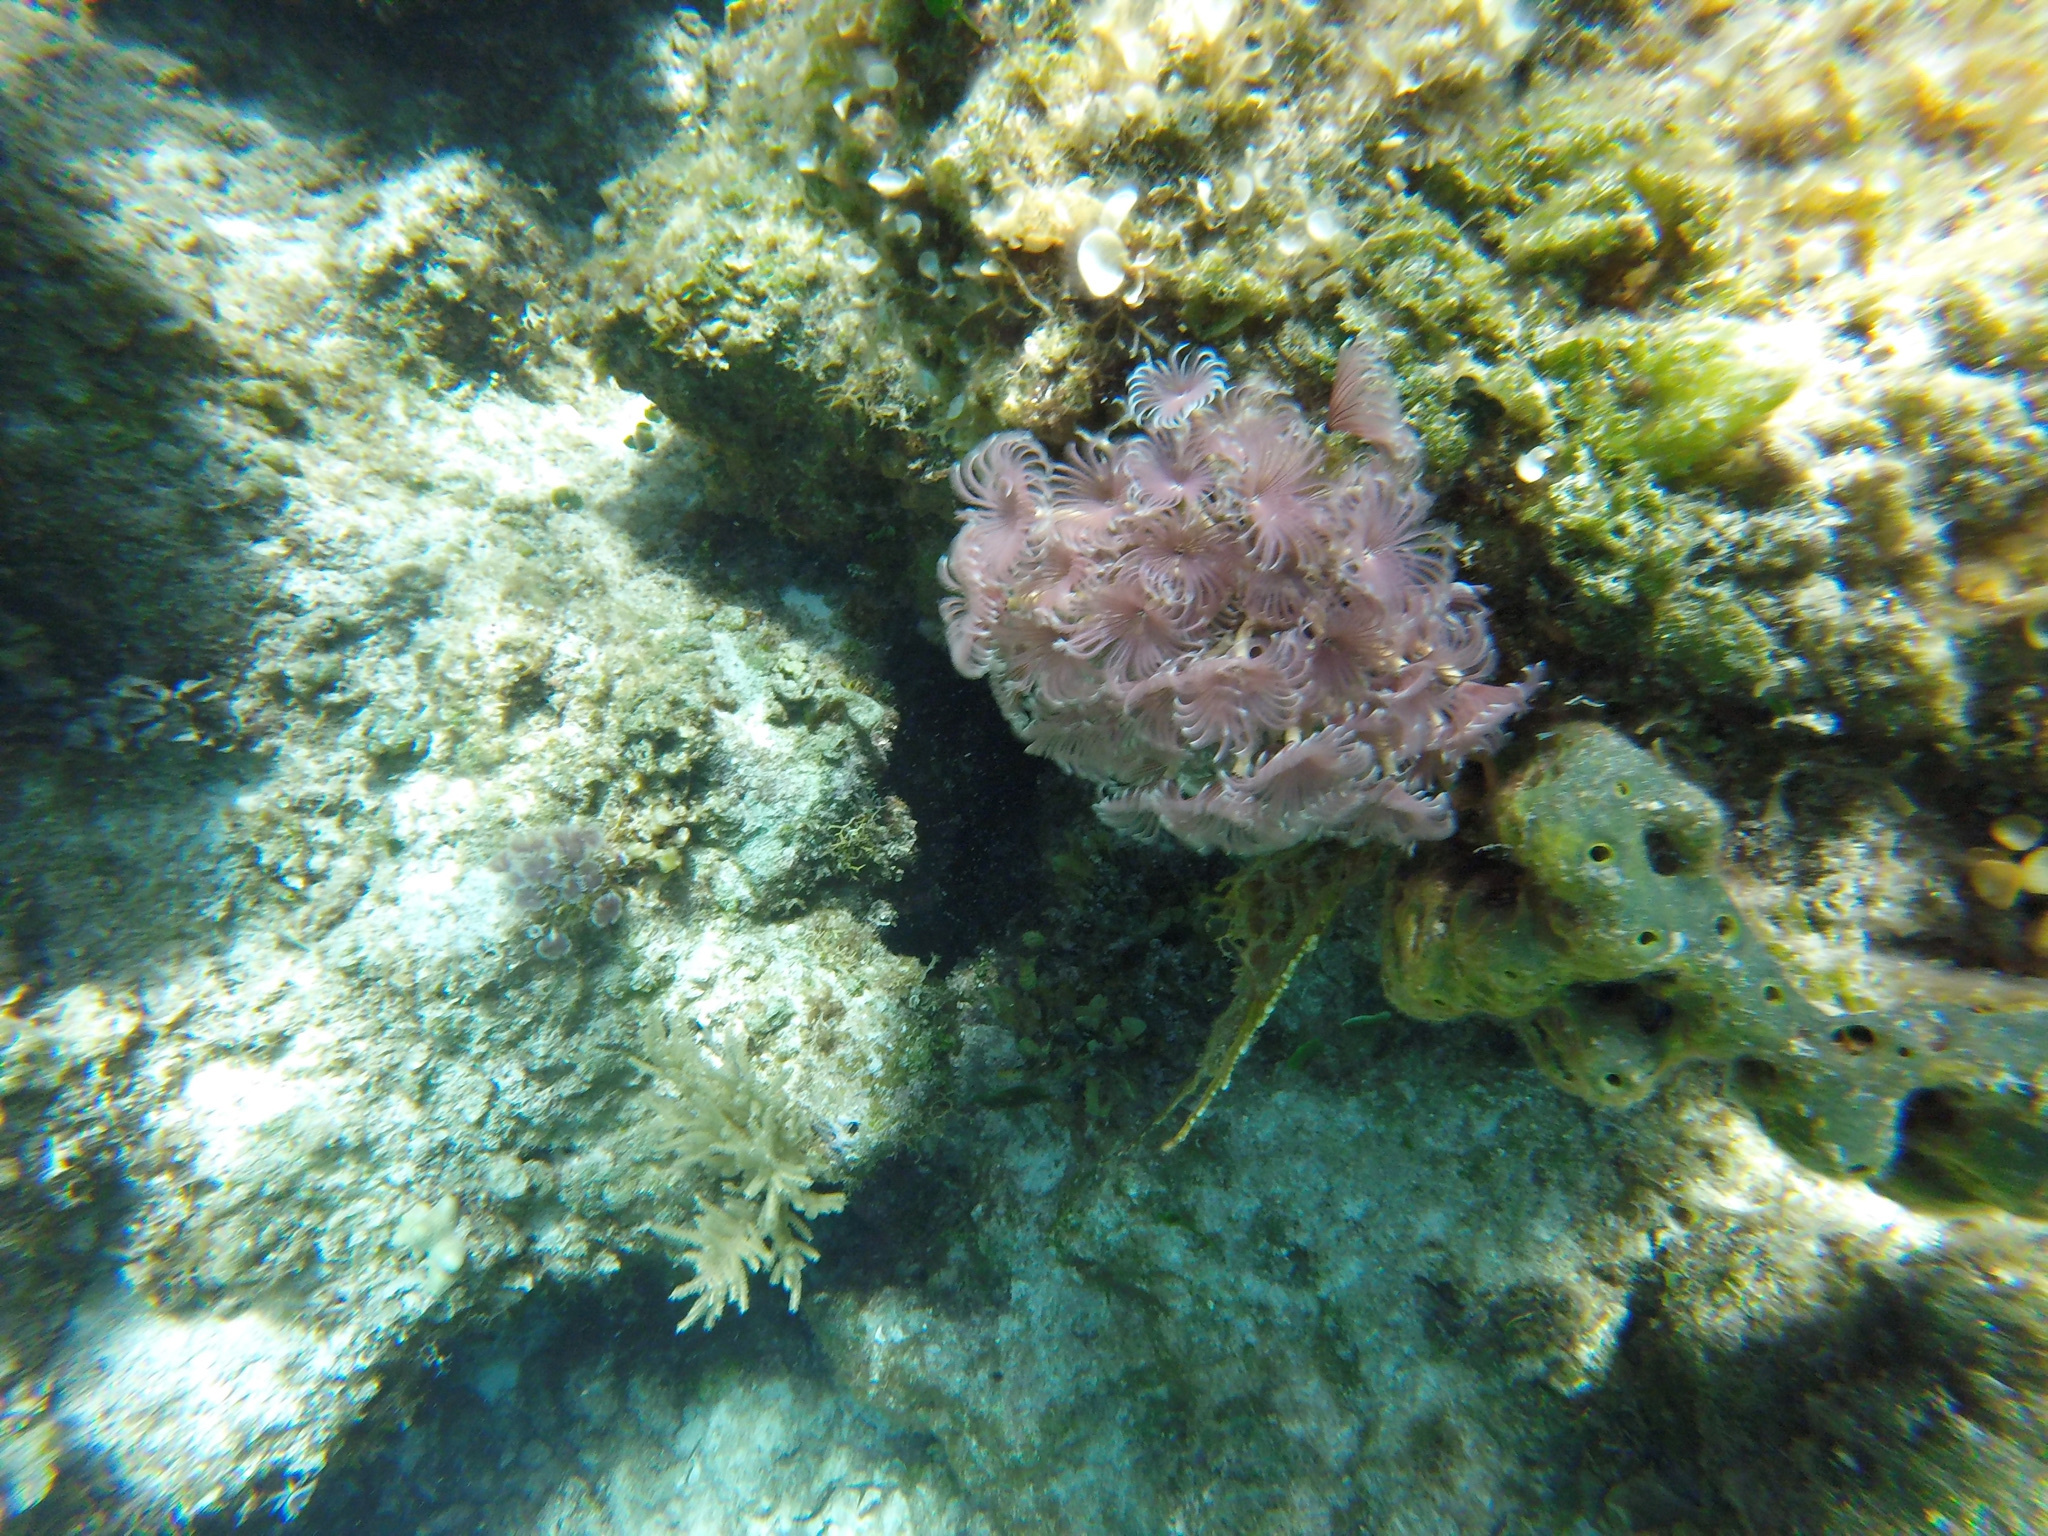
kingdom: Animalia
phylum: Annelida
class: Polychaeta
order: Sabellida
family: Sabellidae
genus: Bispira
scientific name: Bispira brunnea
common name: Social feather duster
